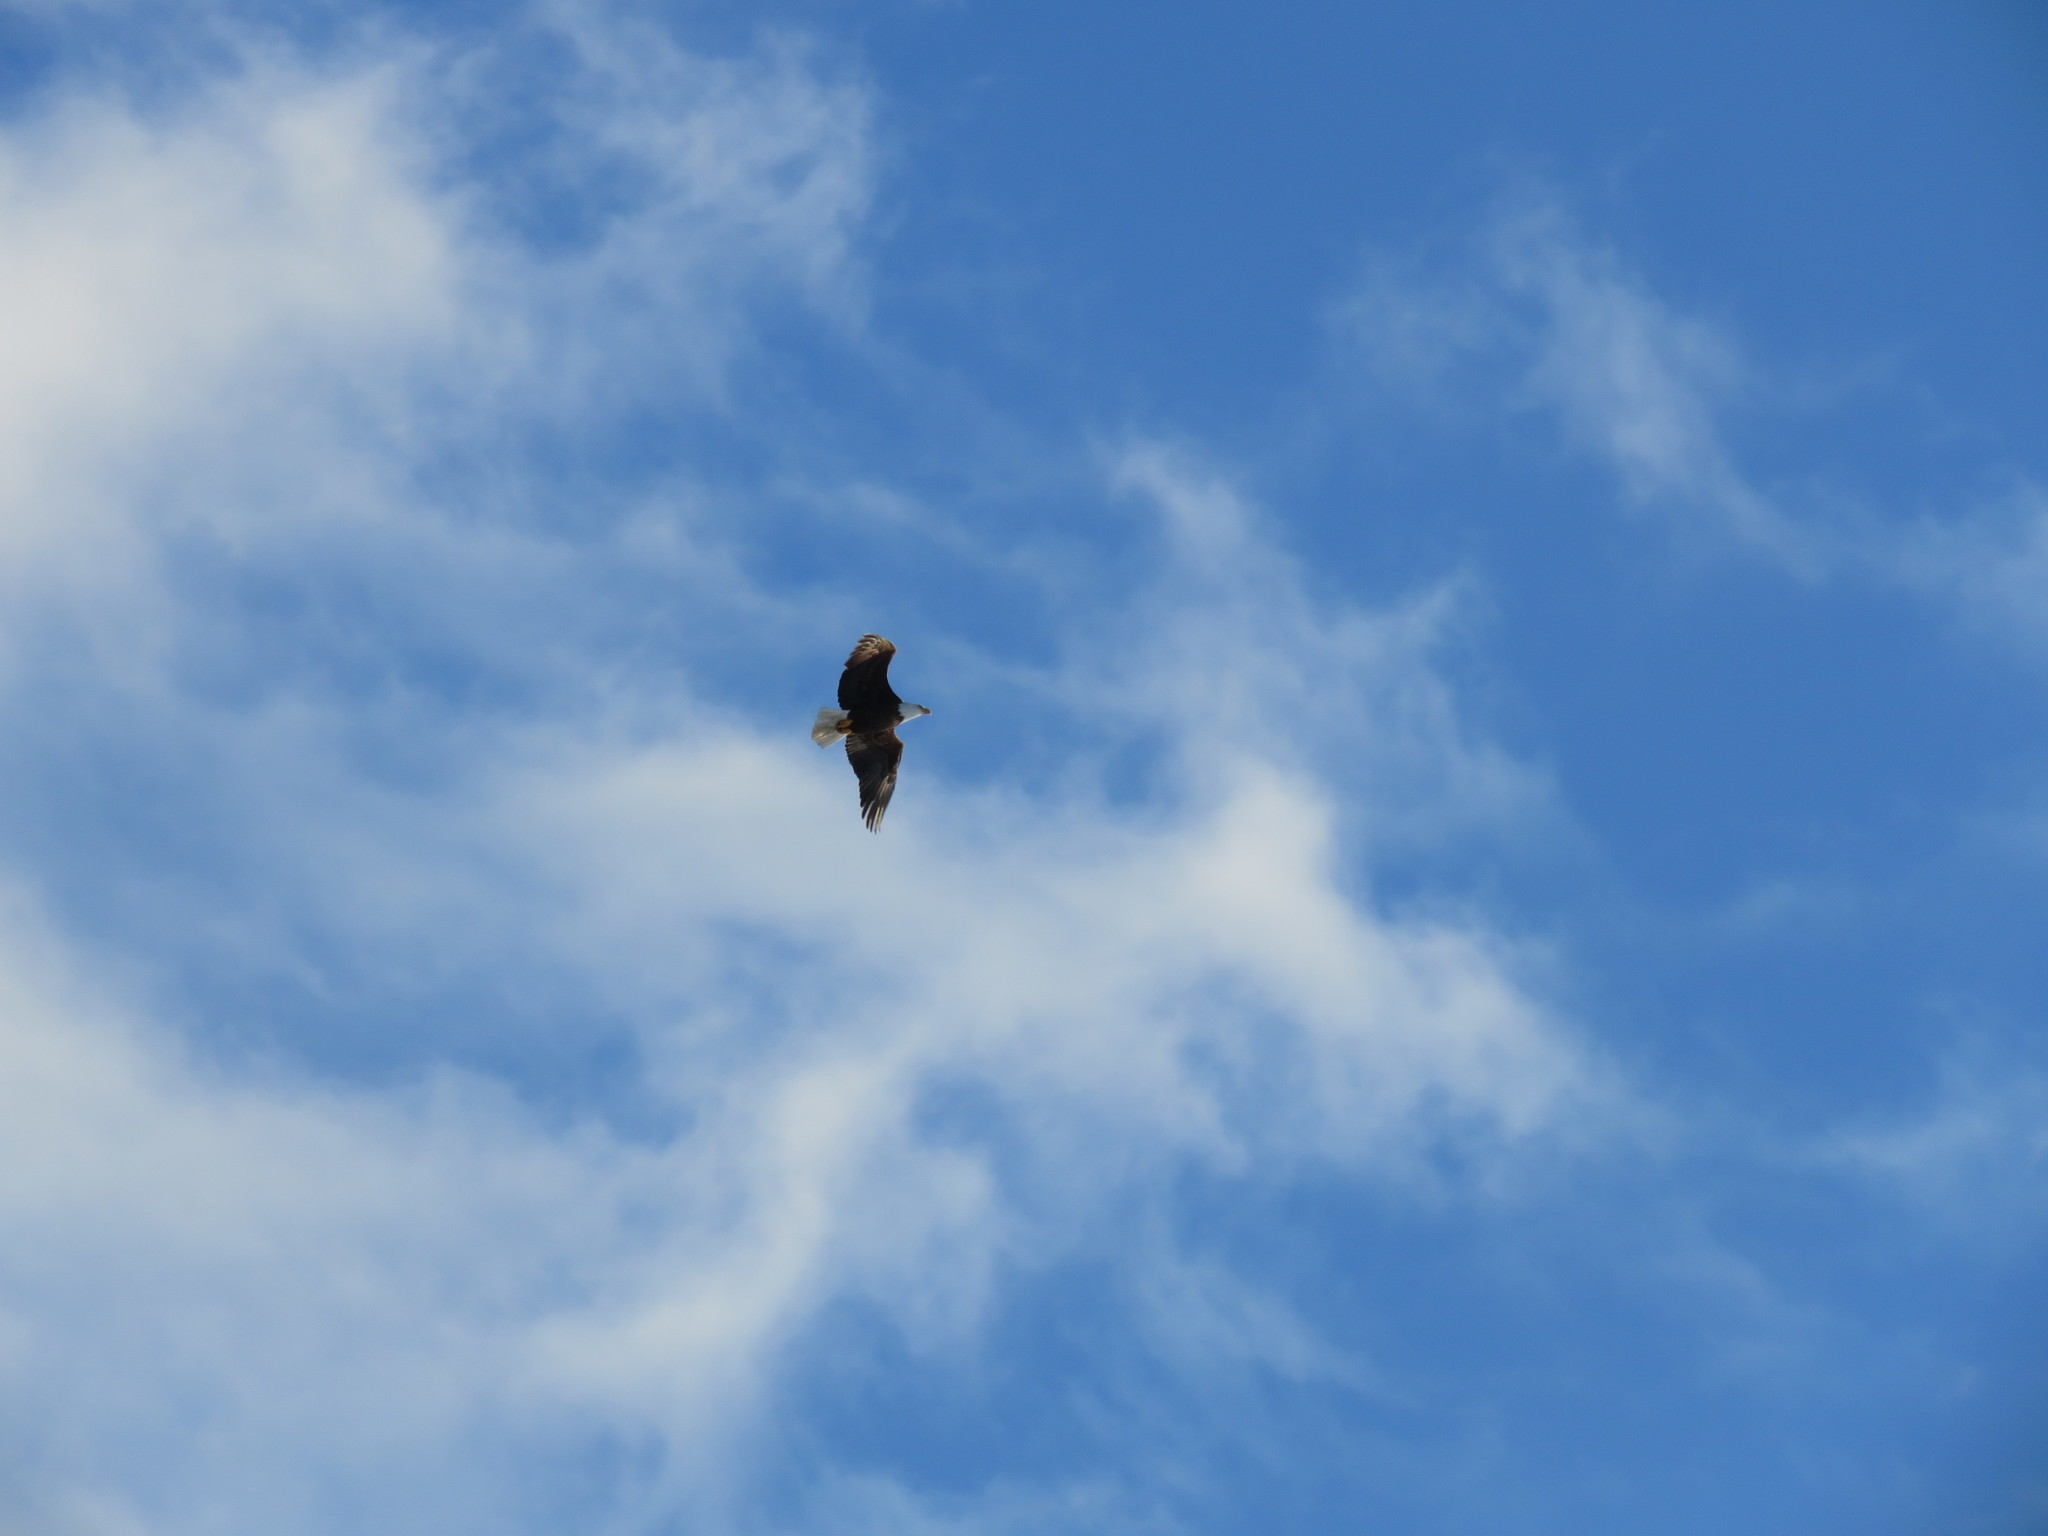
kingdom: Animalia
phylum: Chordata
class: Aves
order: Accipitriformes
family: Accipitridae
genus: Haliaeetus
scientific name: Haliaeetus leucocephalus
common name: Bald eagle
